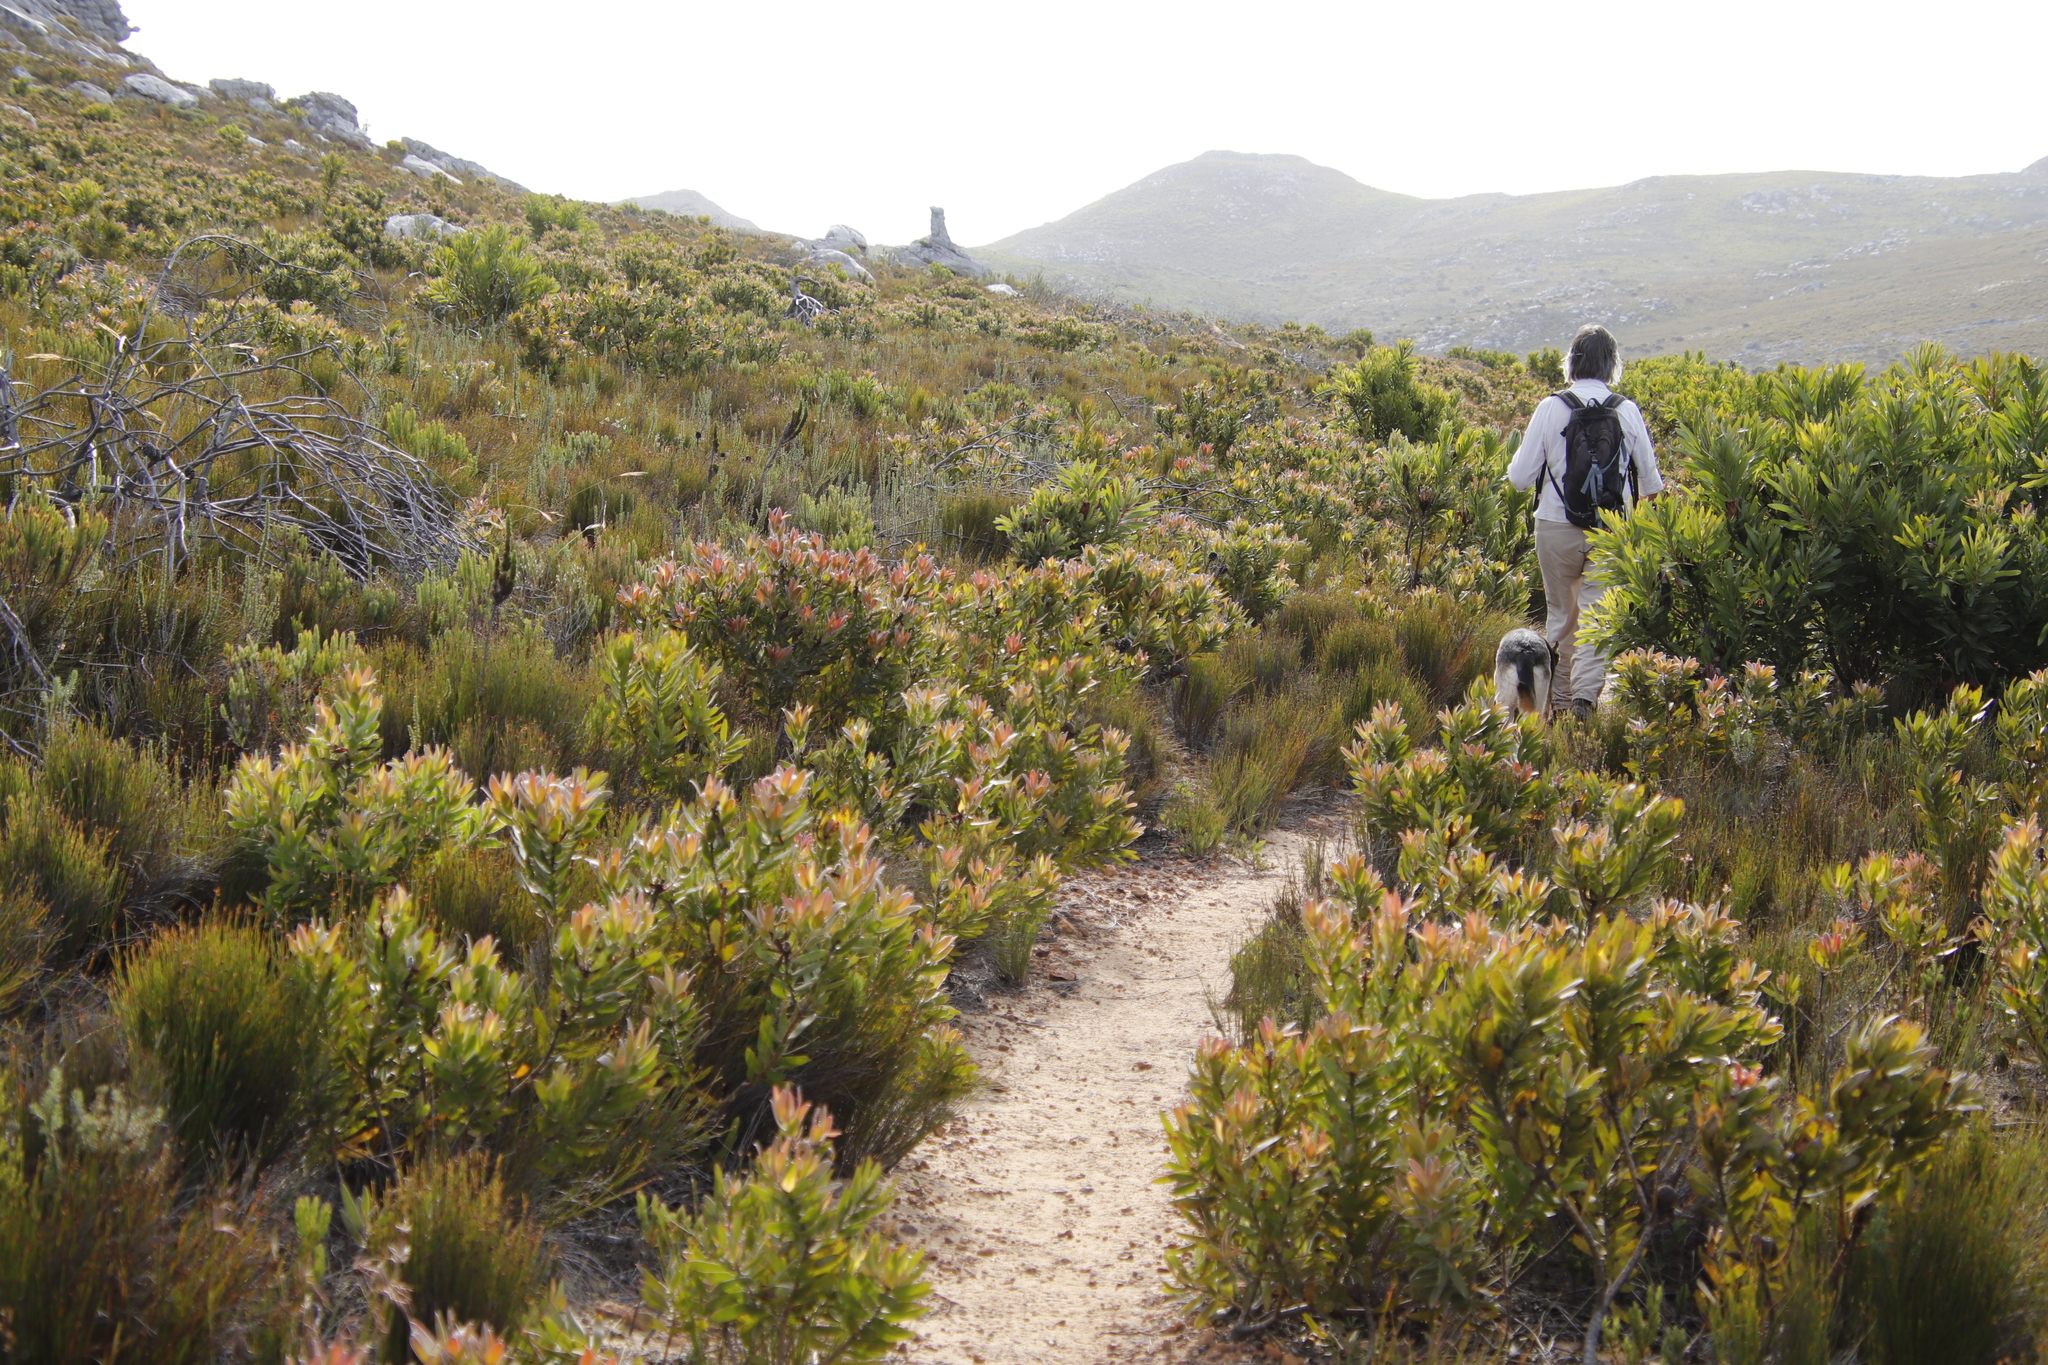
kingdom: Plantae
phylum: Tracheophyta
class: Magnoliopsida
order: Proteales
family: Proteaceae
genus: Leucadendron
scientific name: Leucadendron laureolum
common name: Golden sunshinebush
